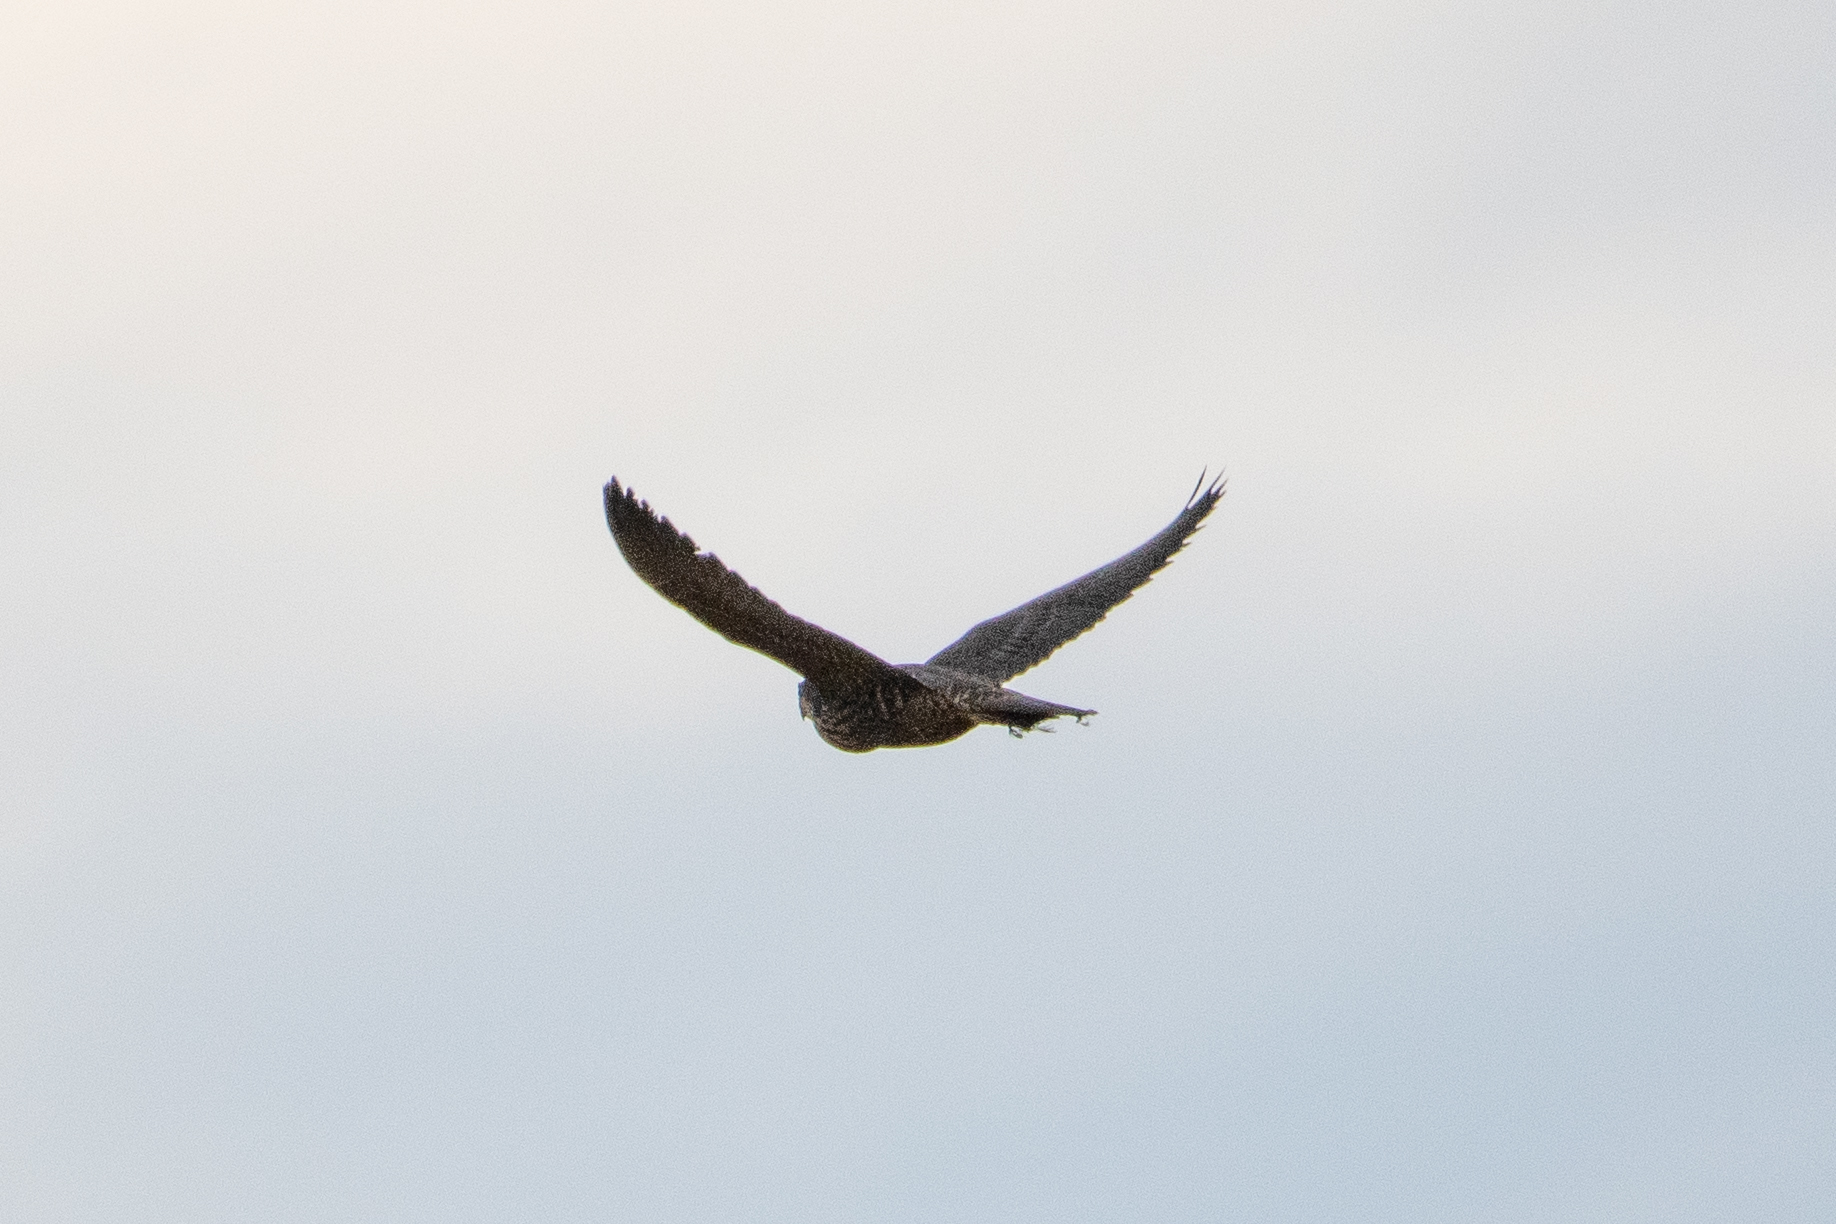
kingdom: Animalia
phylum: Chordata
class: Aves
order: Falconiformes
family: Falconidae
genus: Falco
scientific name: Falco peregrinus
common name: Peregrine falcon
